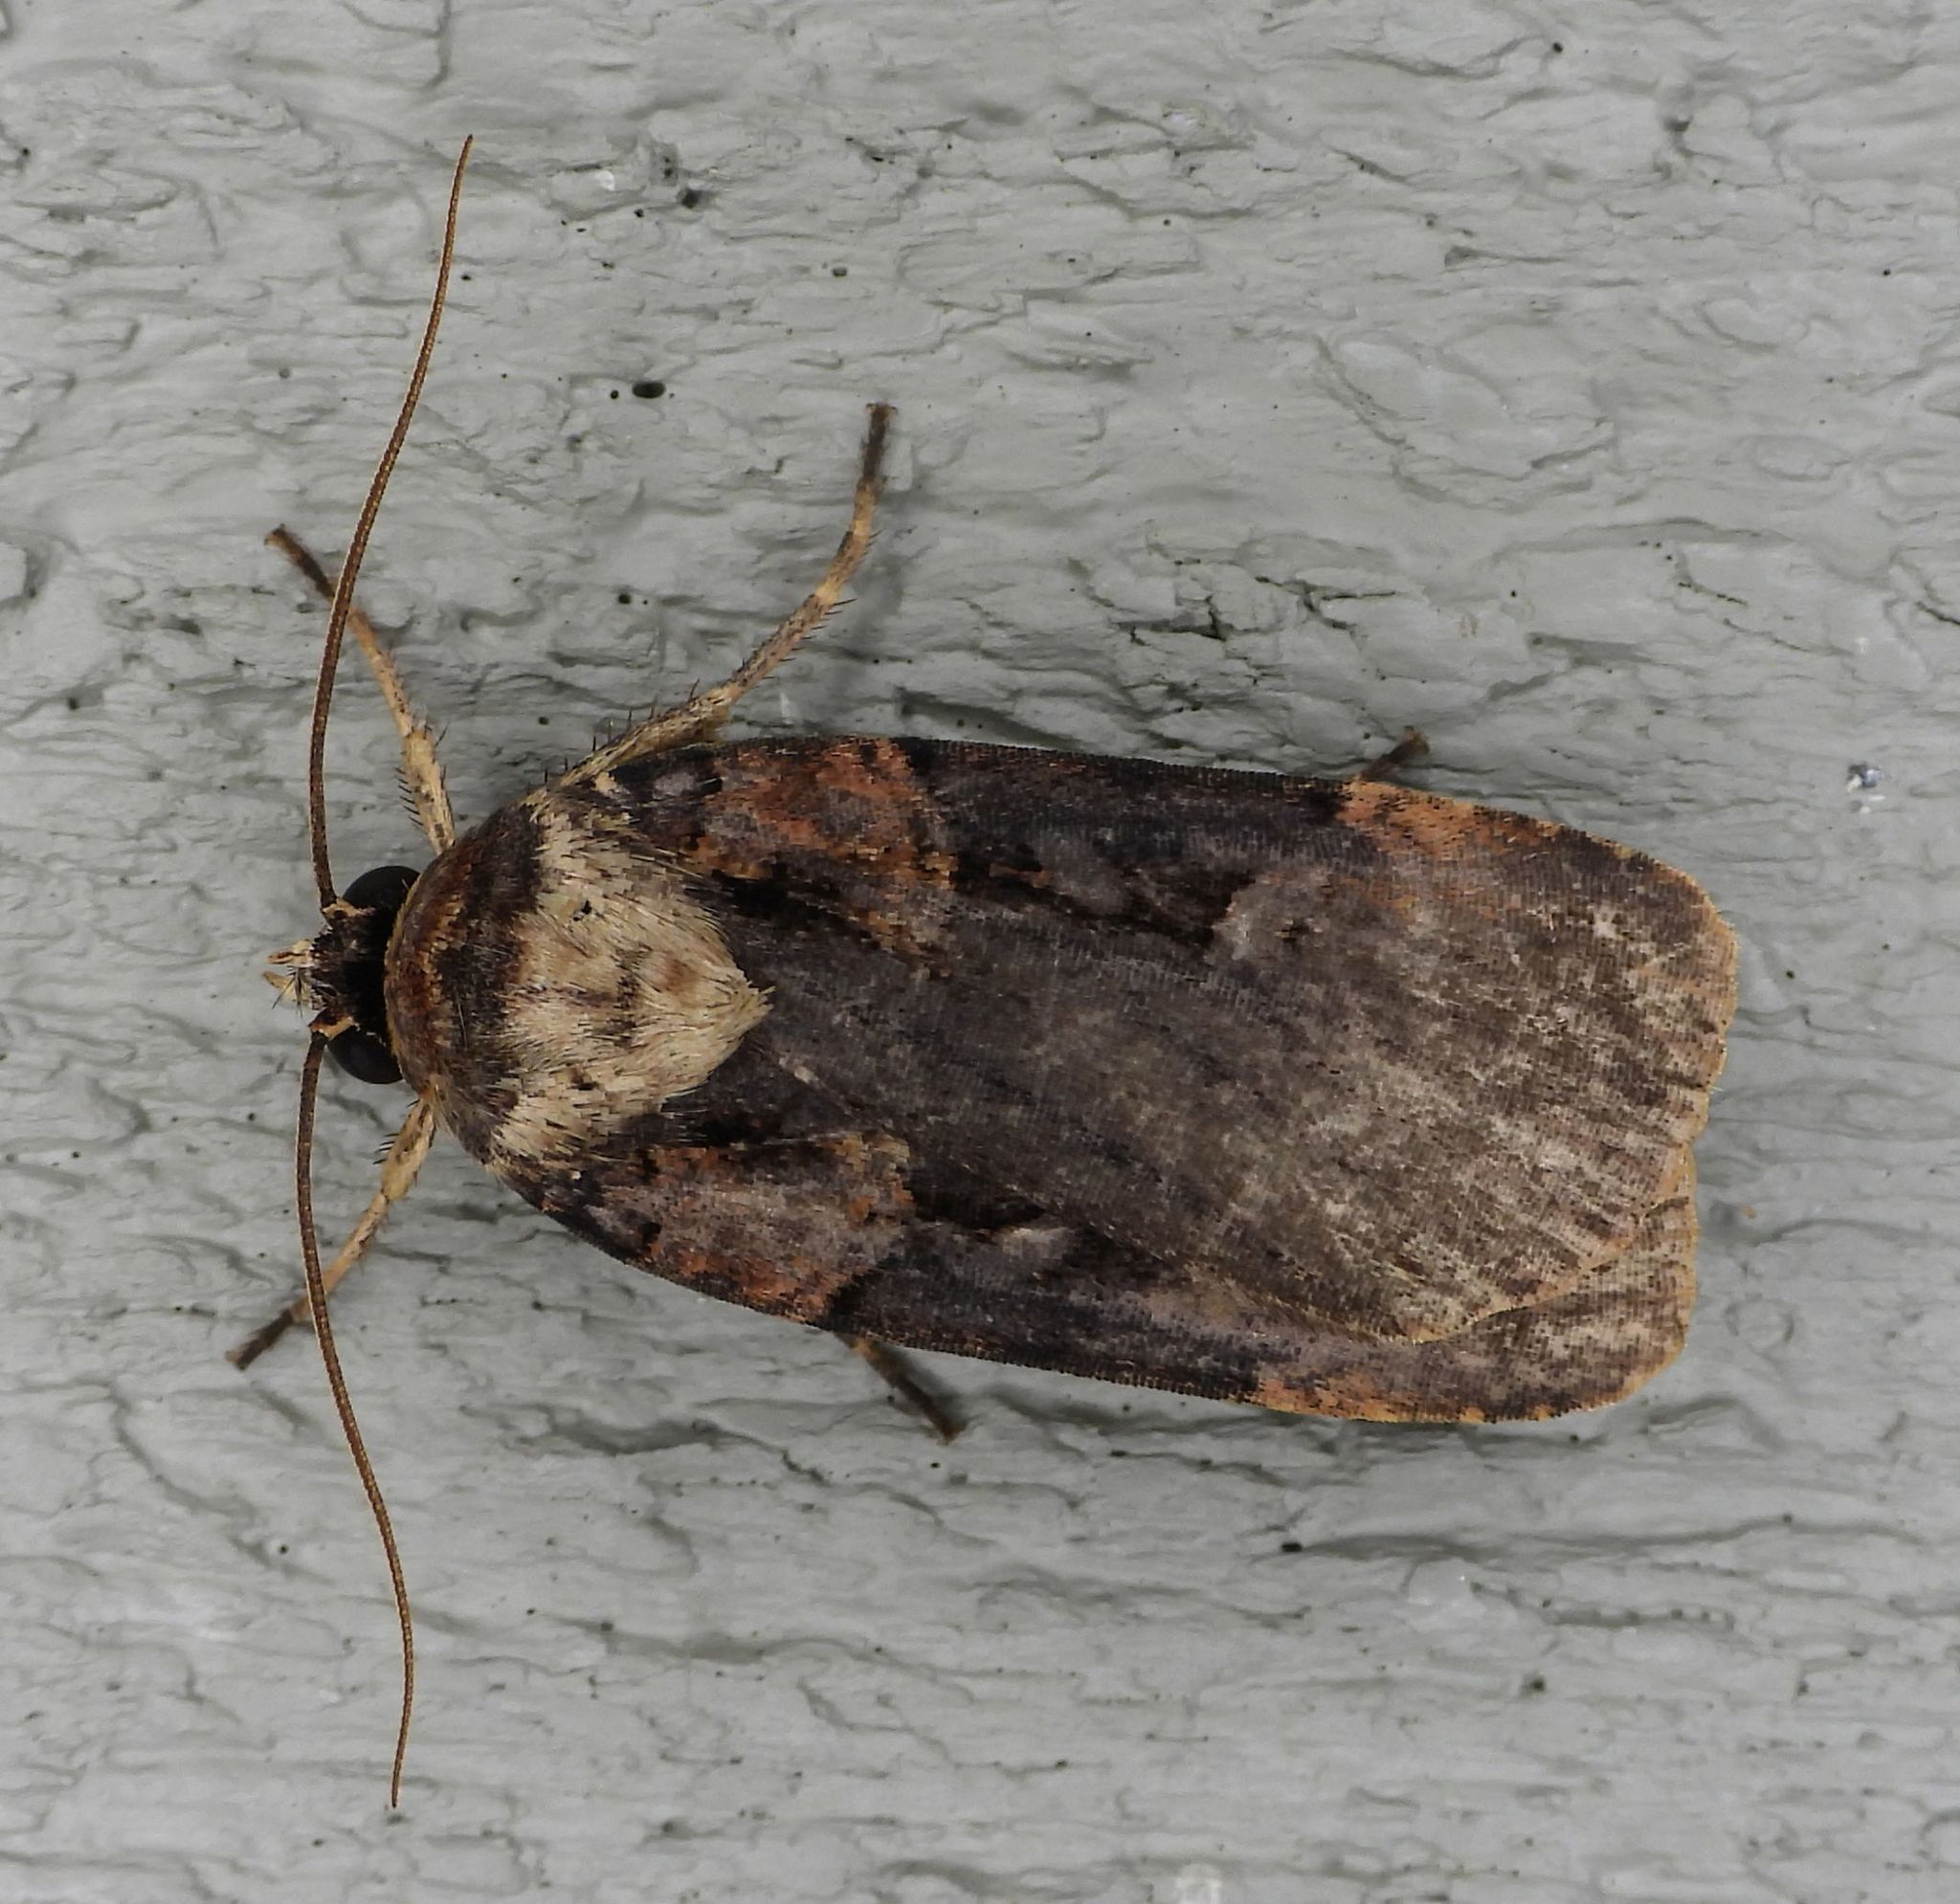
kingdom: Animalia
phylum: Arthropoda
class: Insecta
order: Lepidoptera
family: Noctuidae
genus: Pseudohermonassa
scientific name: Pseudohermonassa bicarnea
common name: Pink spotted dart
